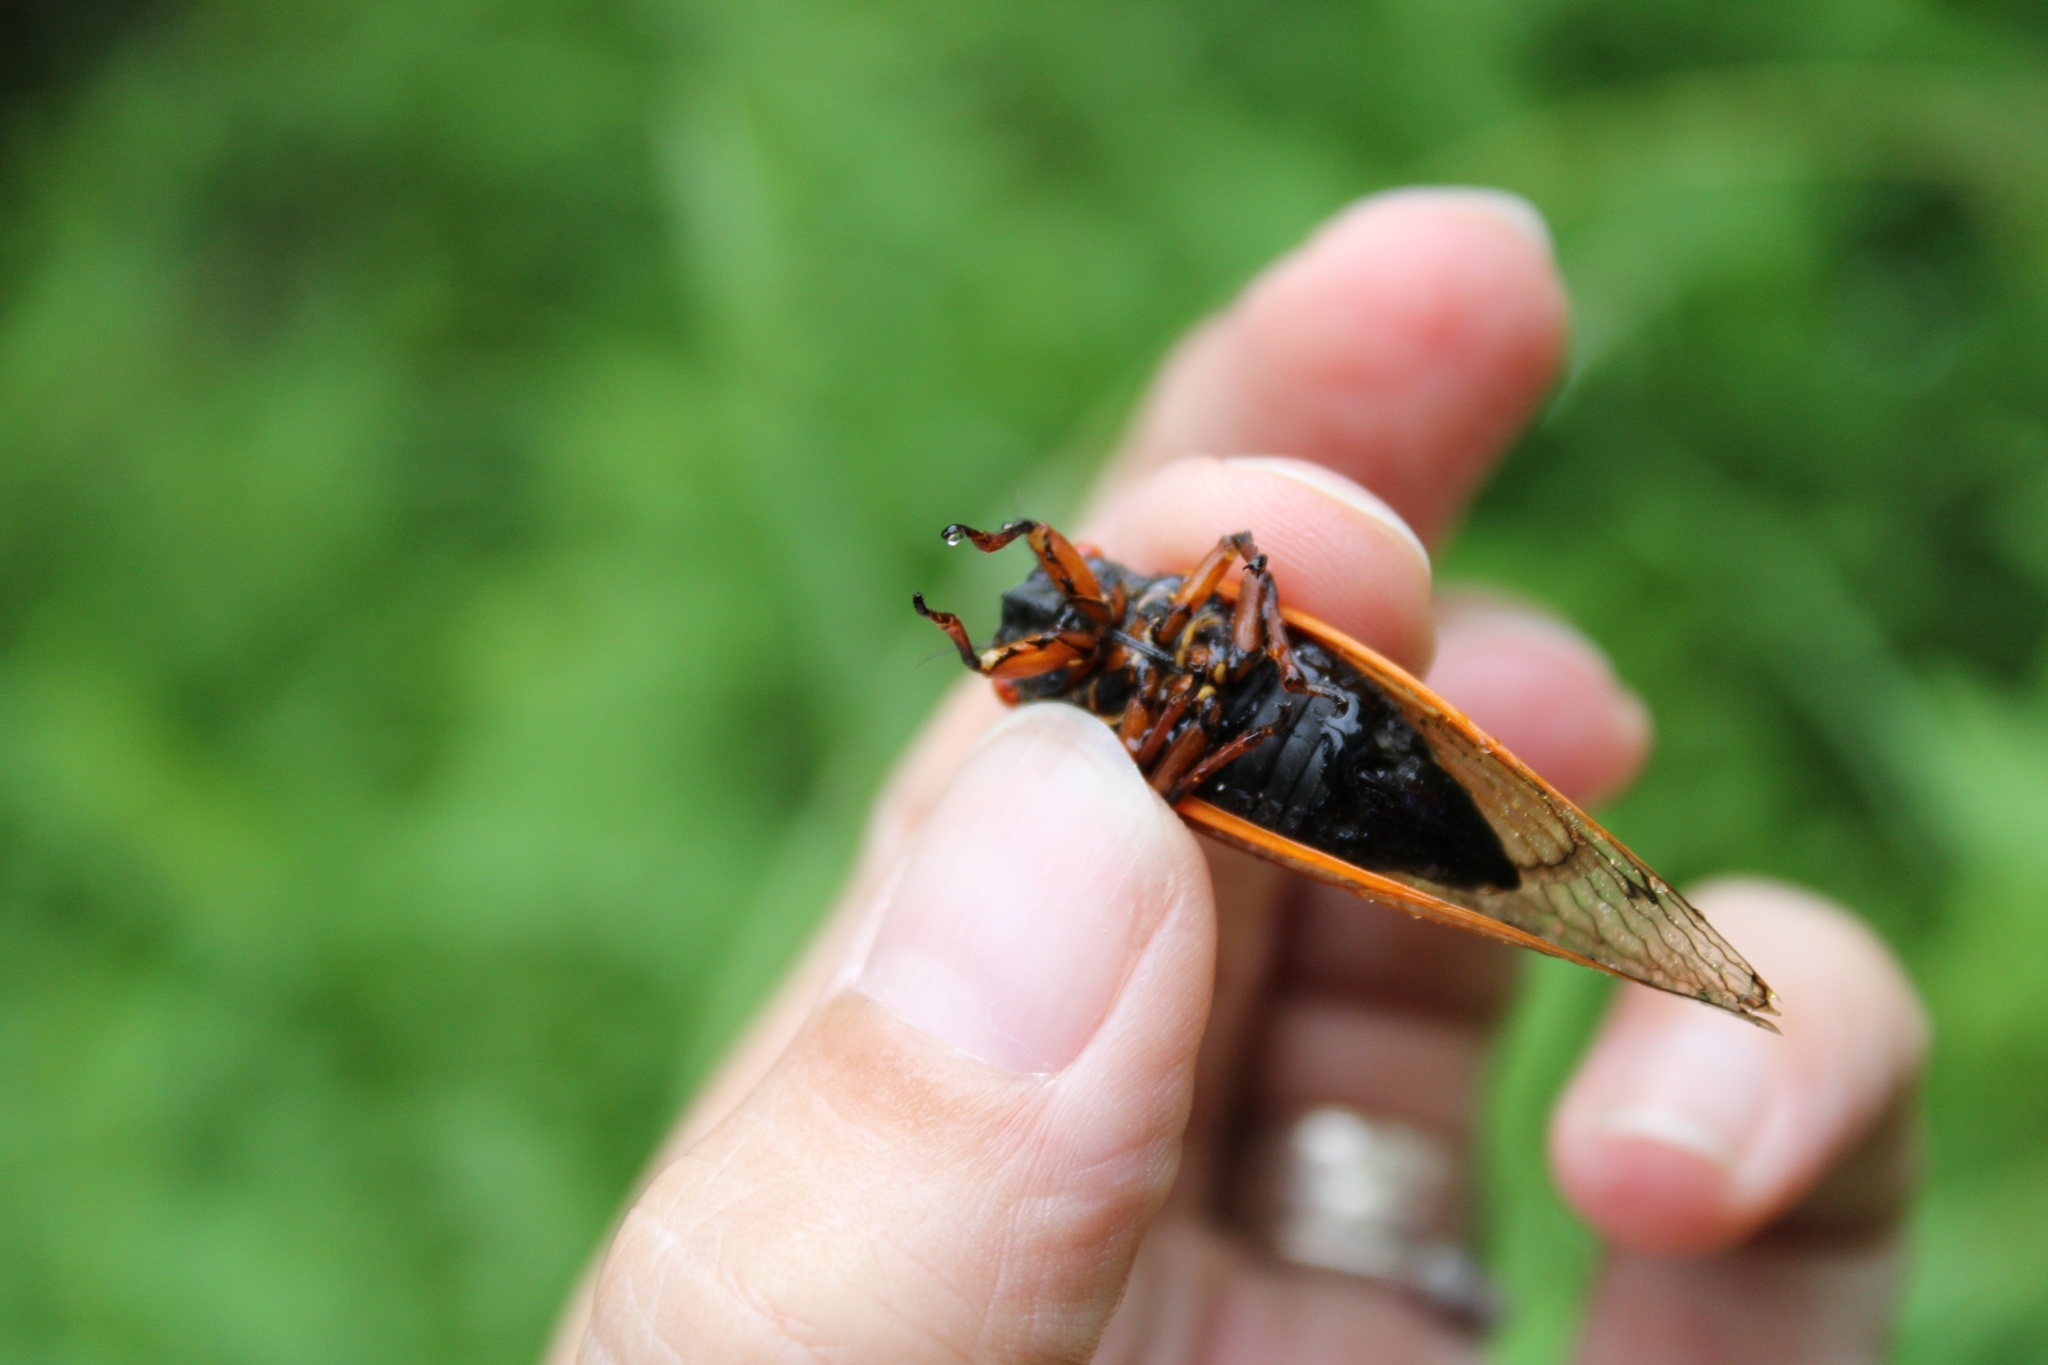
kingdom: Animalia
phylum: Arthropoda
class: Insecta
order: Hemiptera
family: Cicadidae
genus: Magicicada
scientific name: Magicicada cassini
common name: Cassin's 17-year cicada
